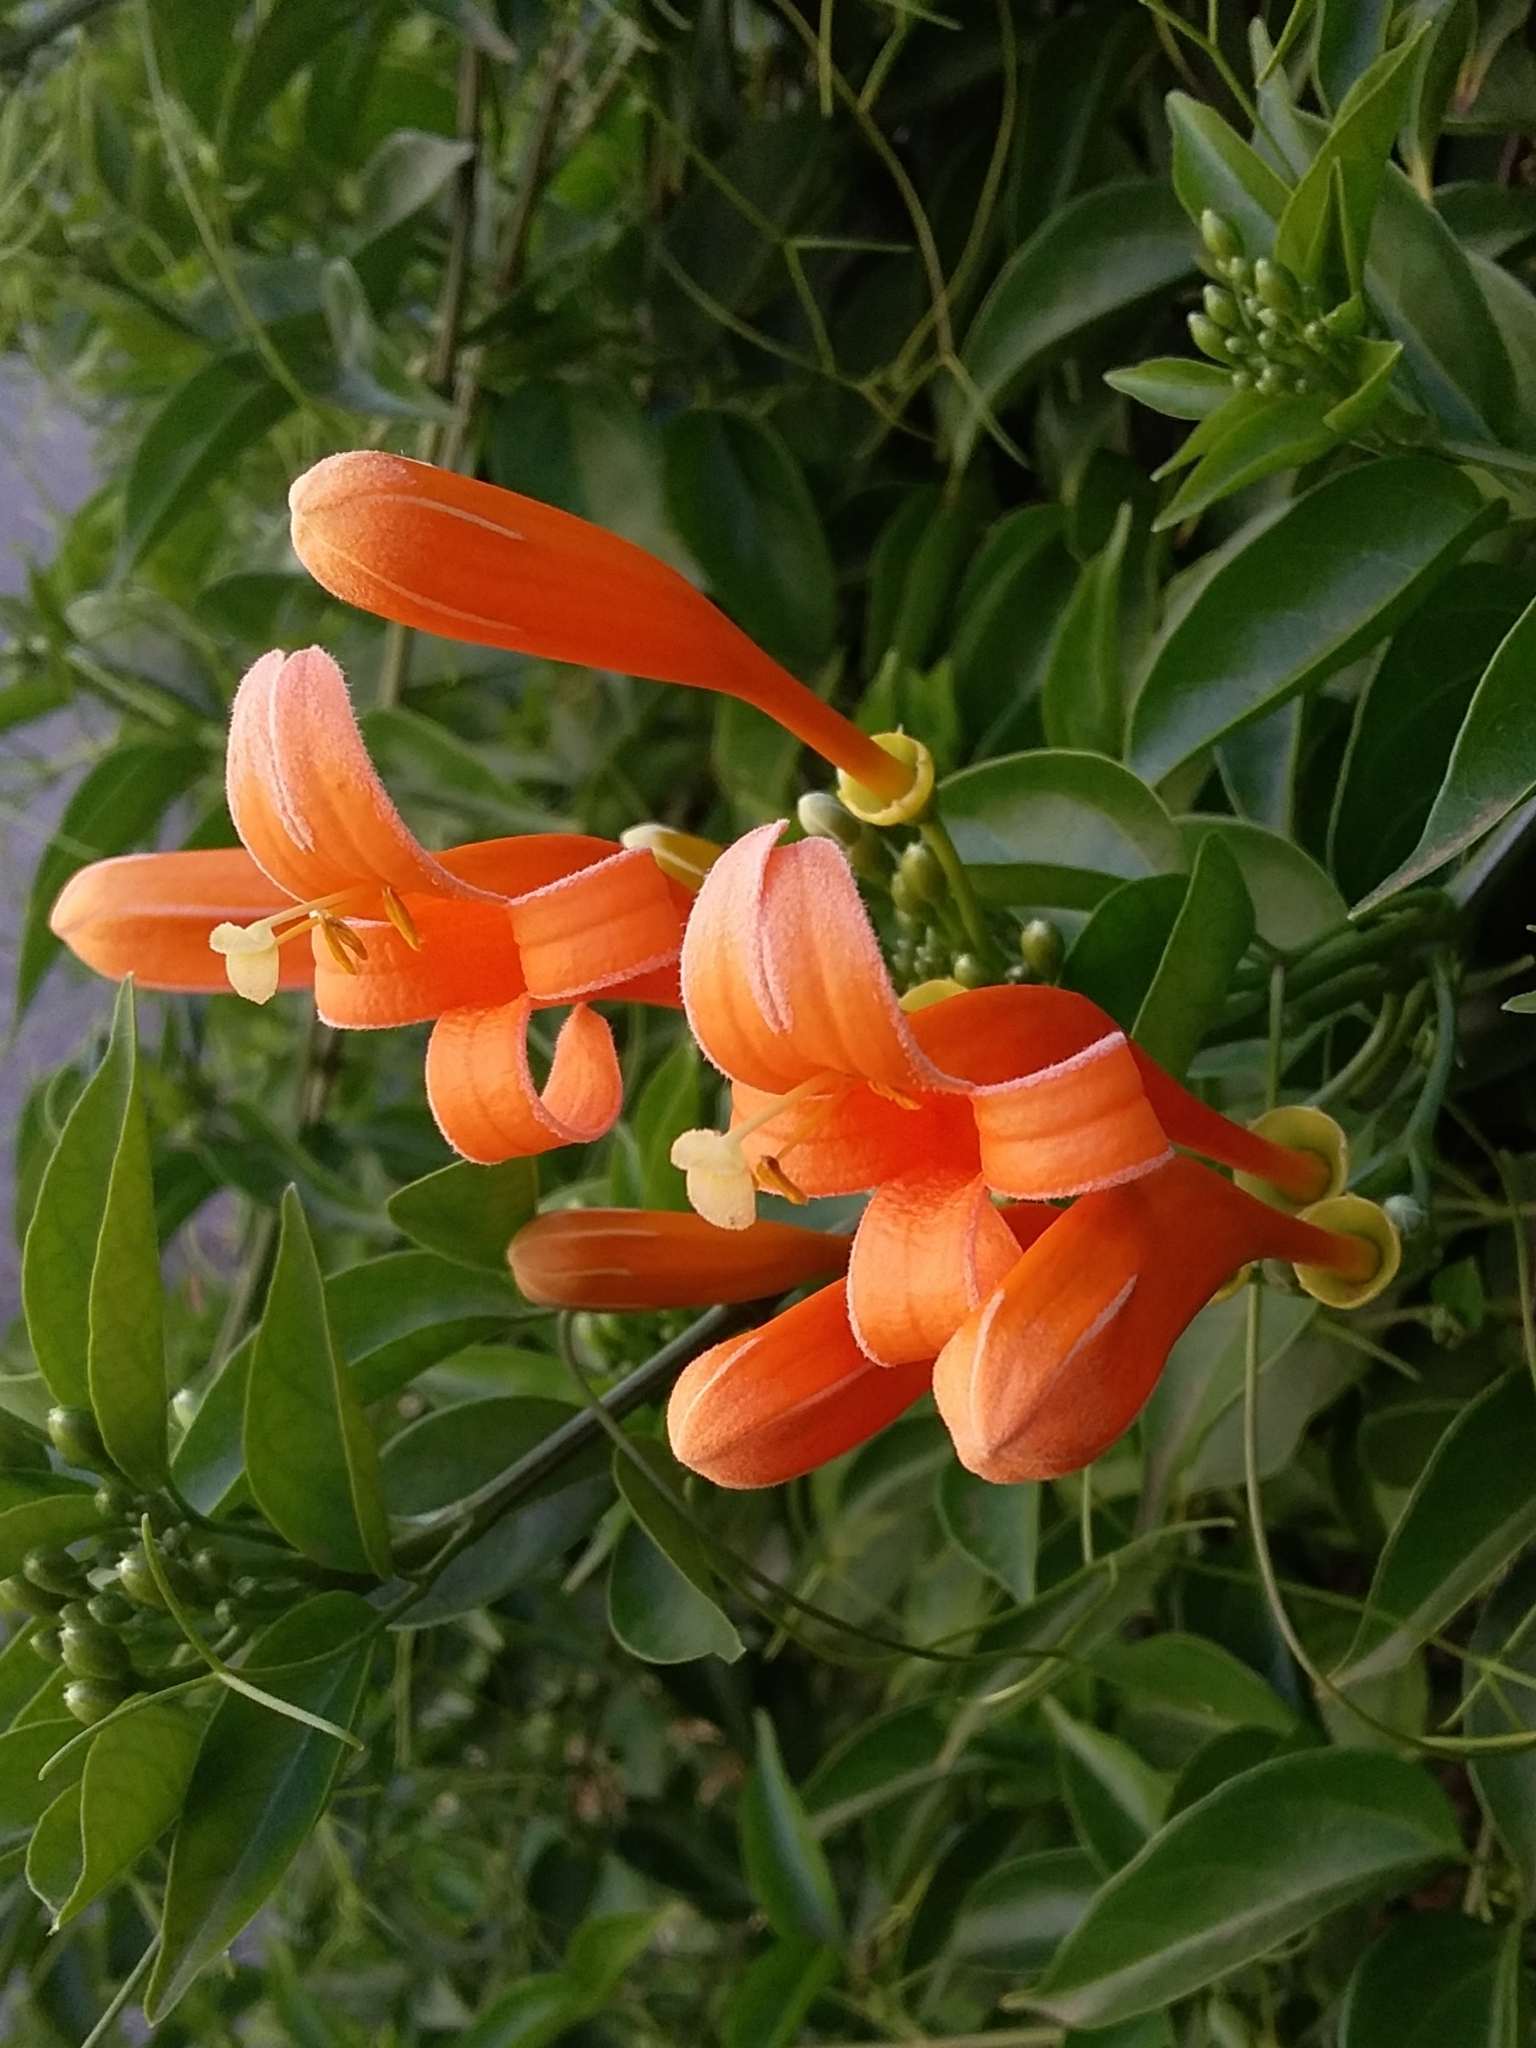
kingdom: Plantae
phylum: Tracheophyta
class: Magnoliopsida
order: Lamiales
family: Bignoniaceae
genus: Pyrostegia
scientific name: Pyrostegia venusta
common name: Flamevine
